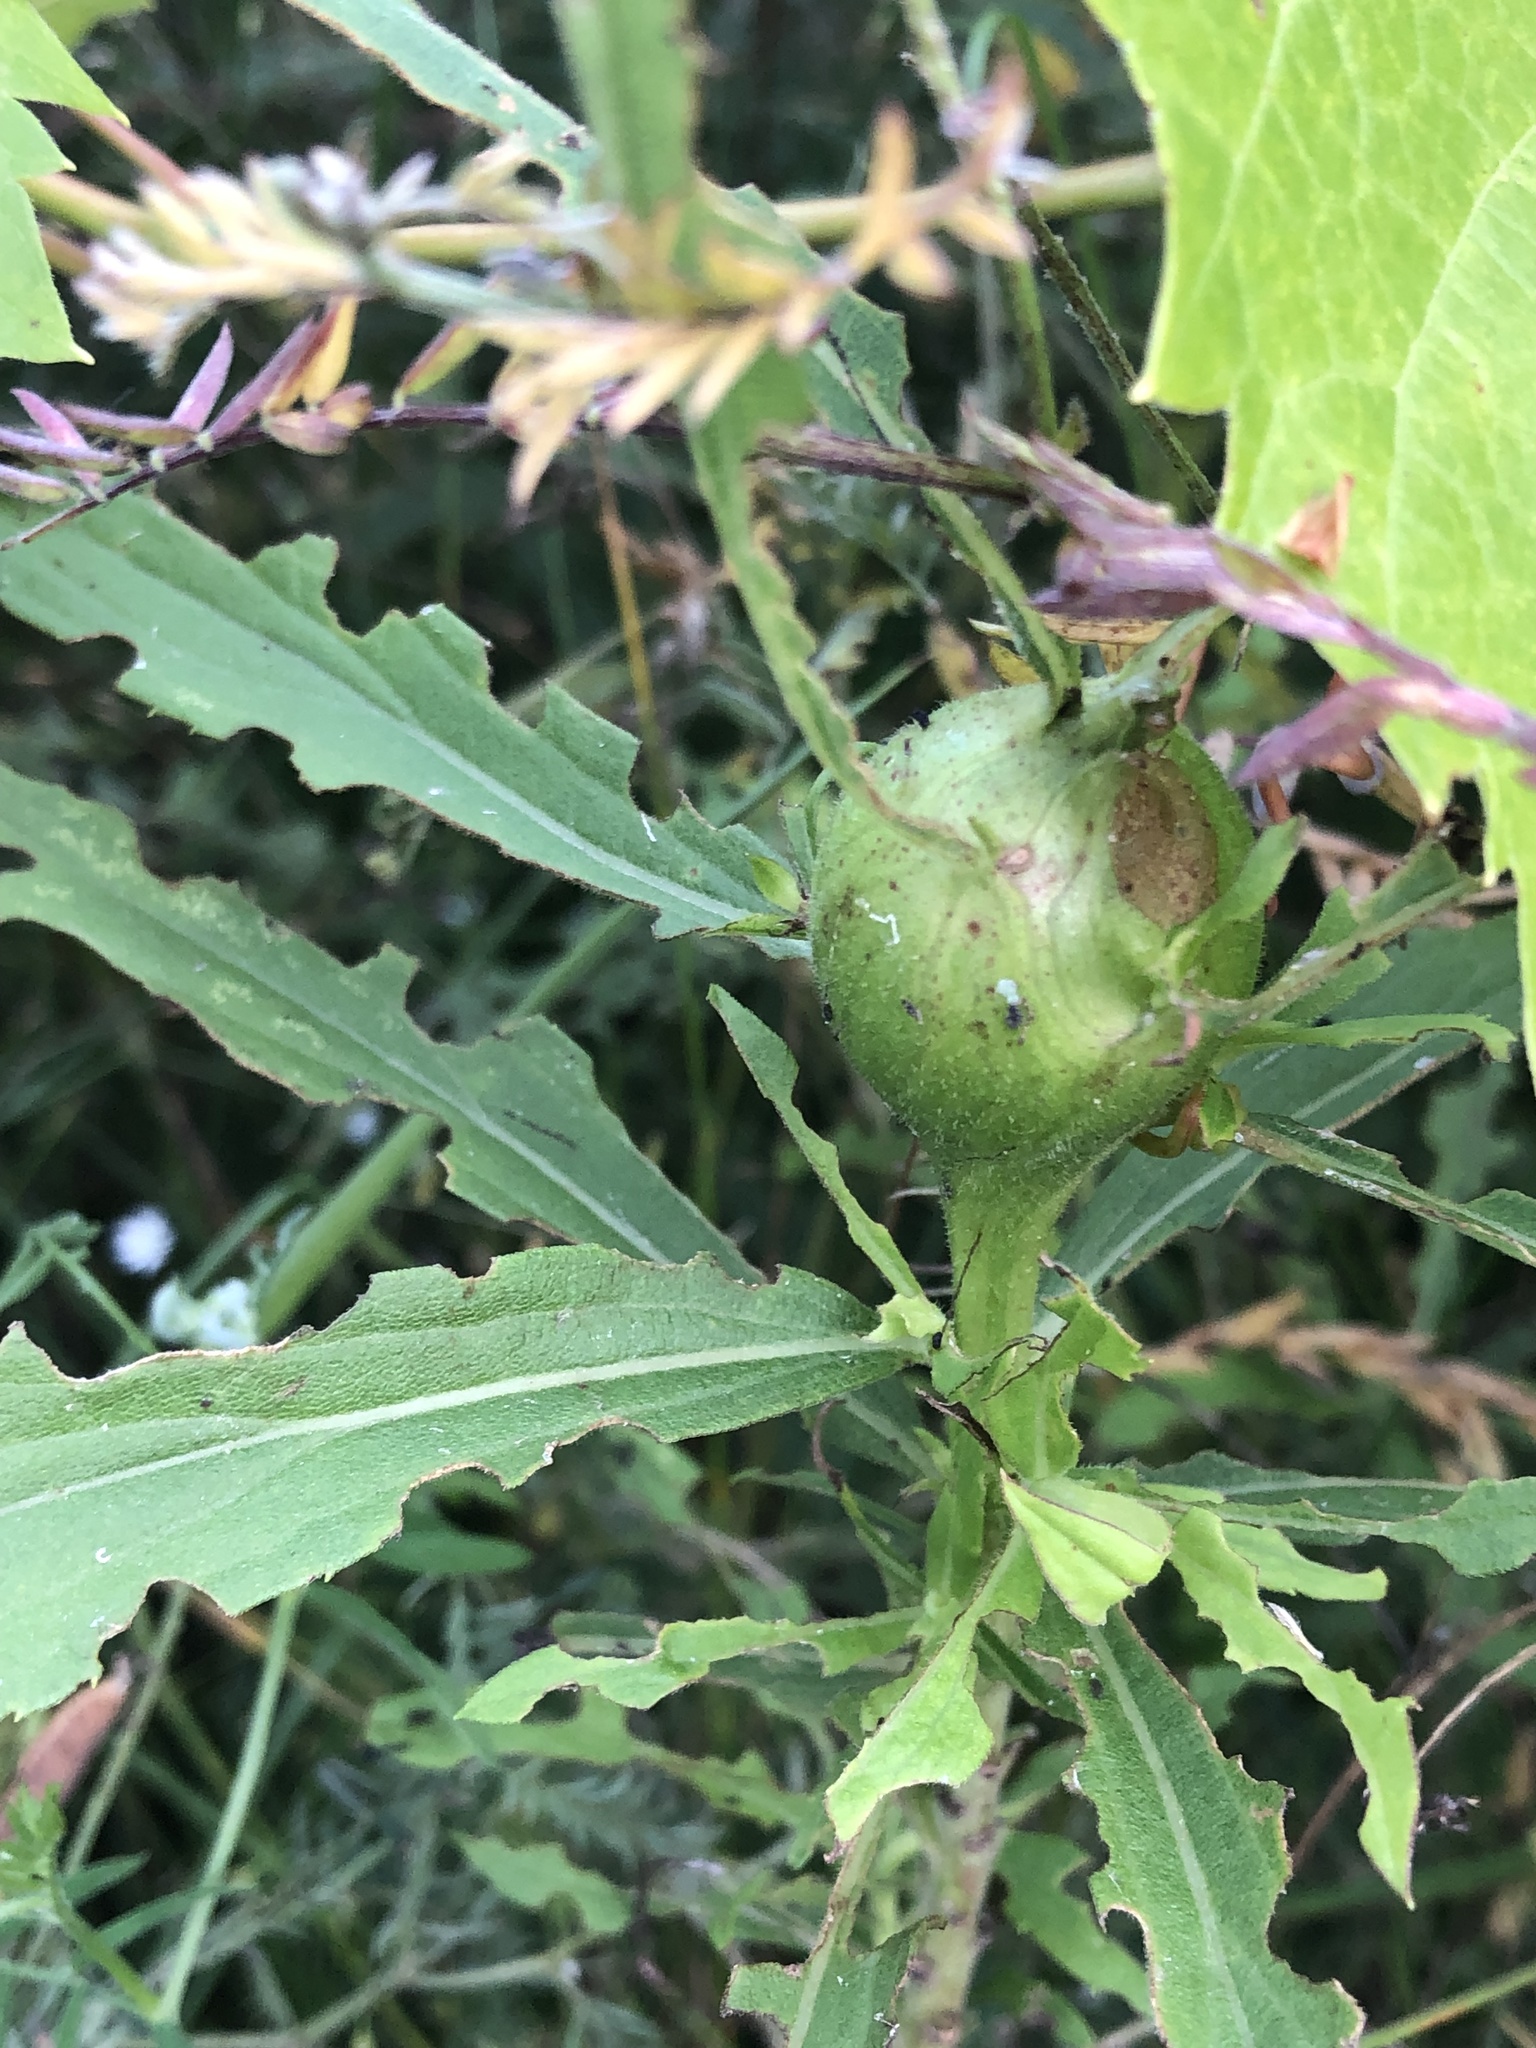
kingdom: Animalia
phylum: Arthropoda
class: Insecta
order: Diptera
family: Tephritidae
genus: Eurosta
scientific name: Eurosta solidaginis
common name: Goldenrod gall fly
